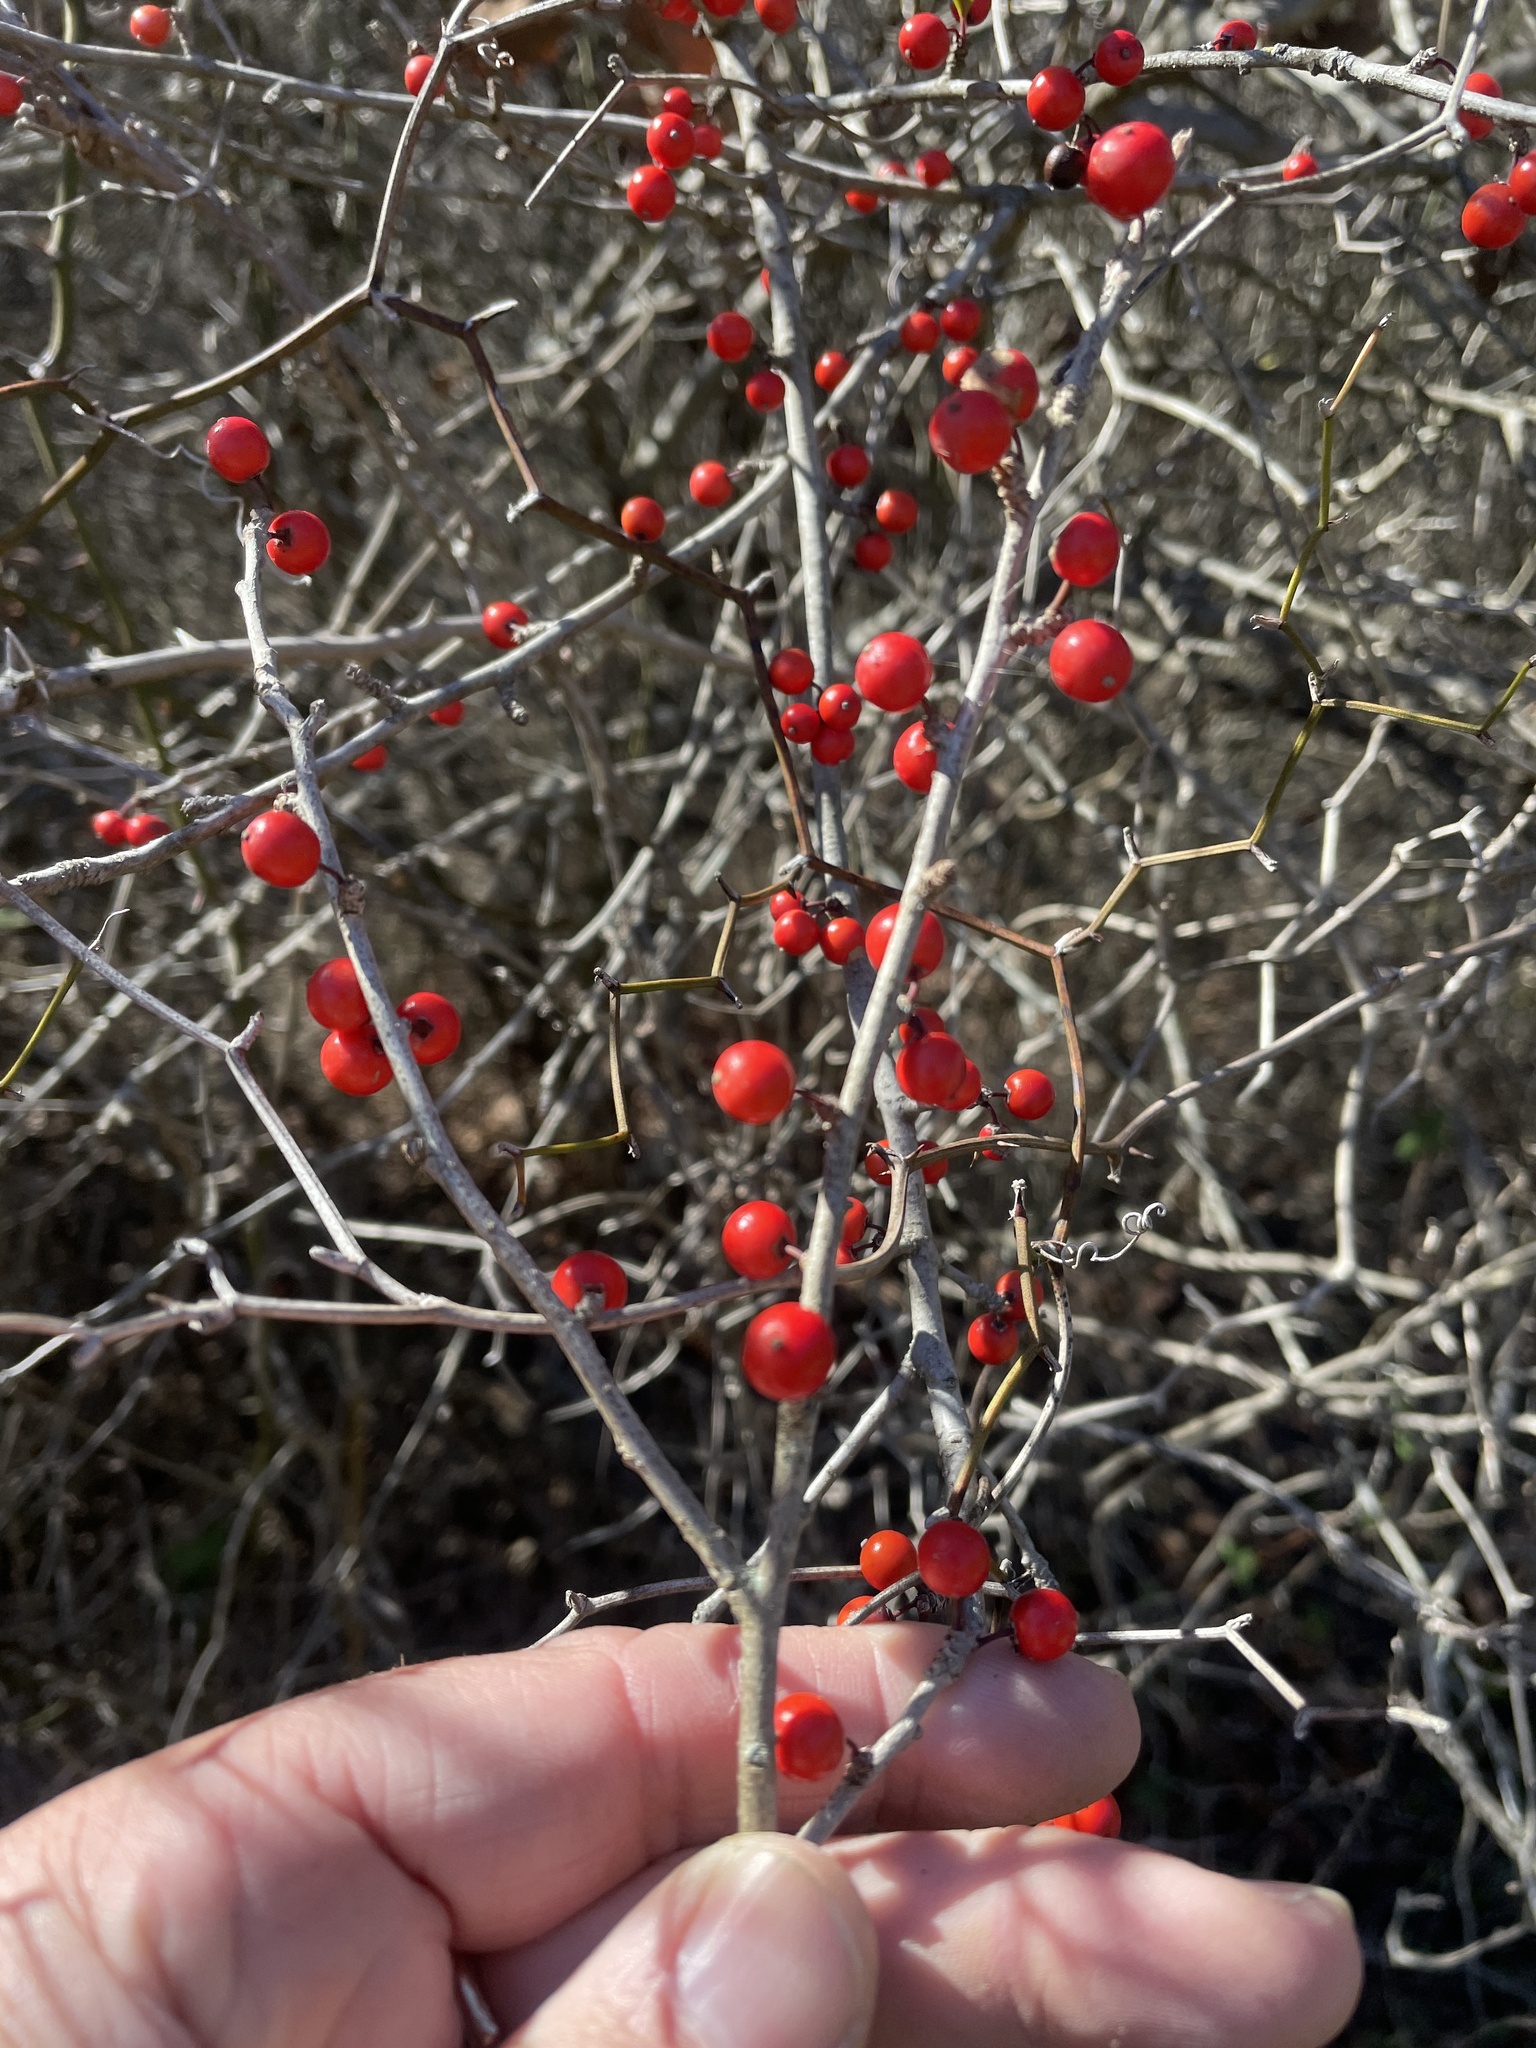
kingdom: Plantae
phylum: Tracheophyta
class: Magnoliopsida
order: Aquifoliales
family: Aquifoliaceae
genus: Ilex
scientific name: Ilex decidua
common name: Possum-haw
